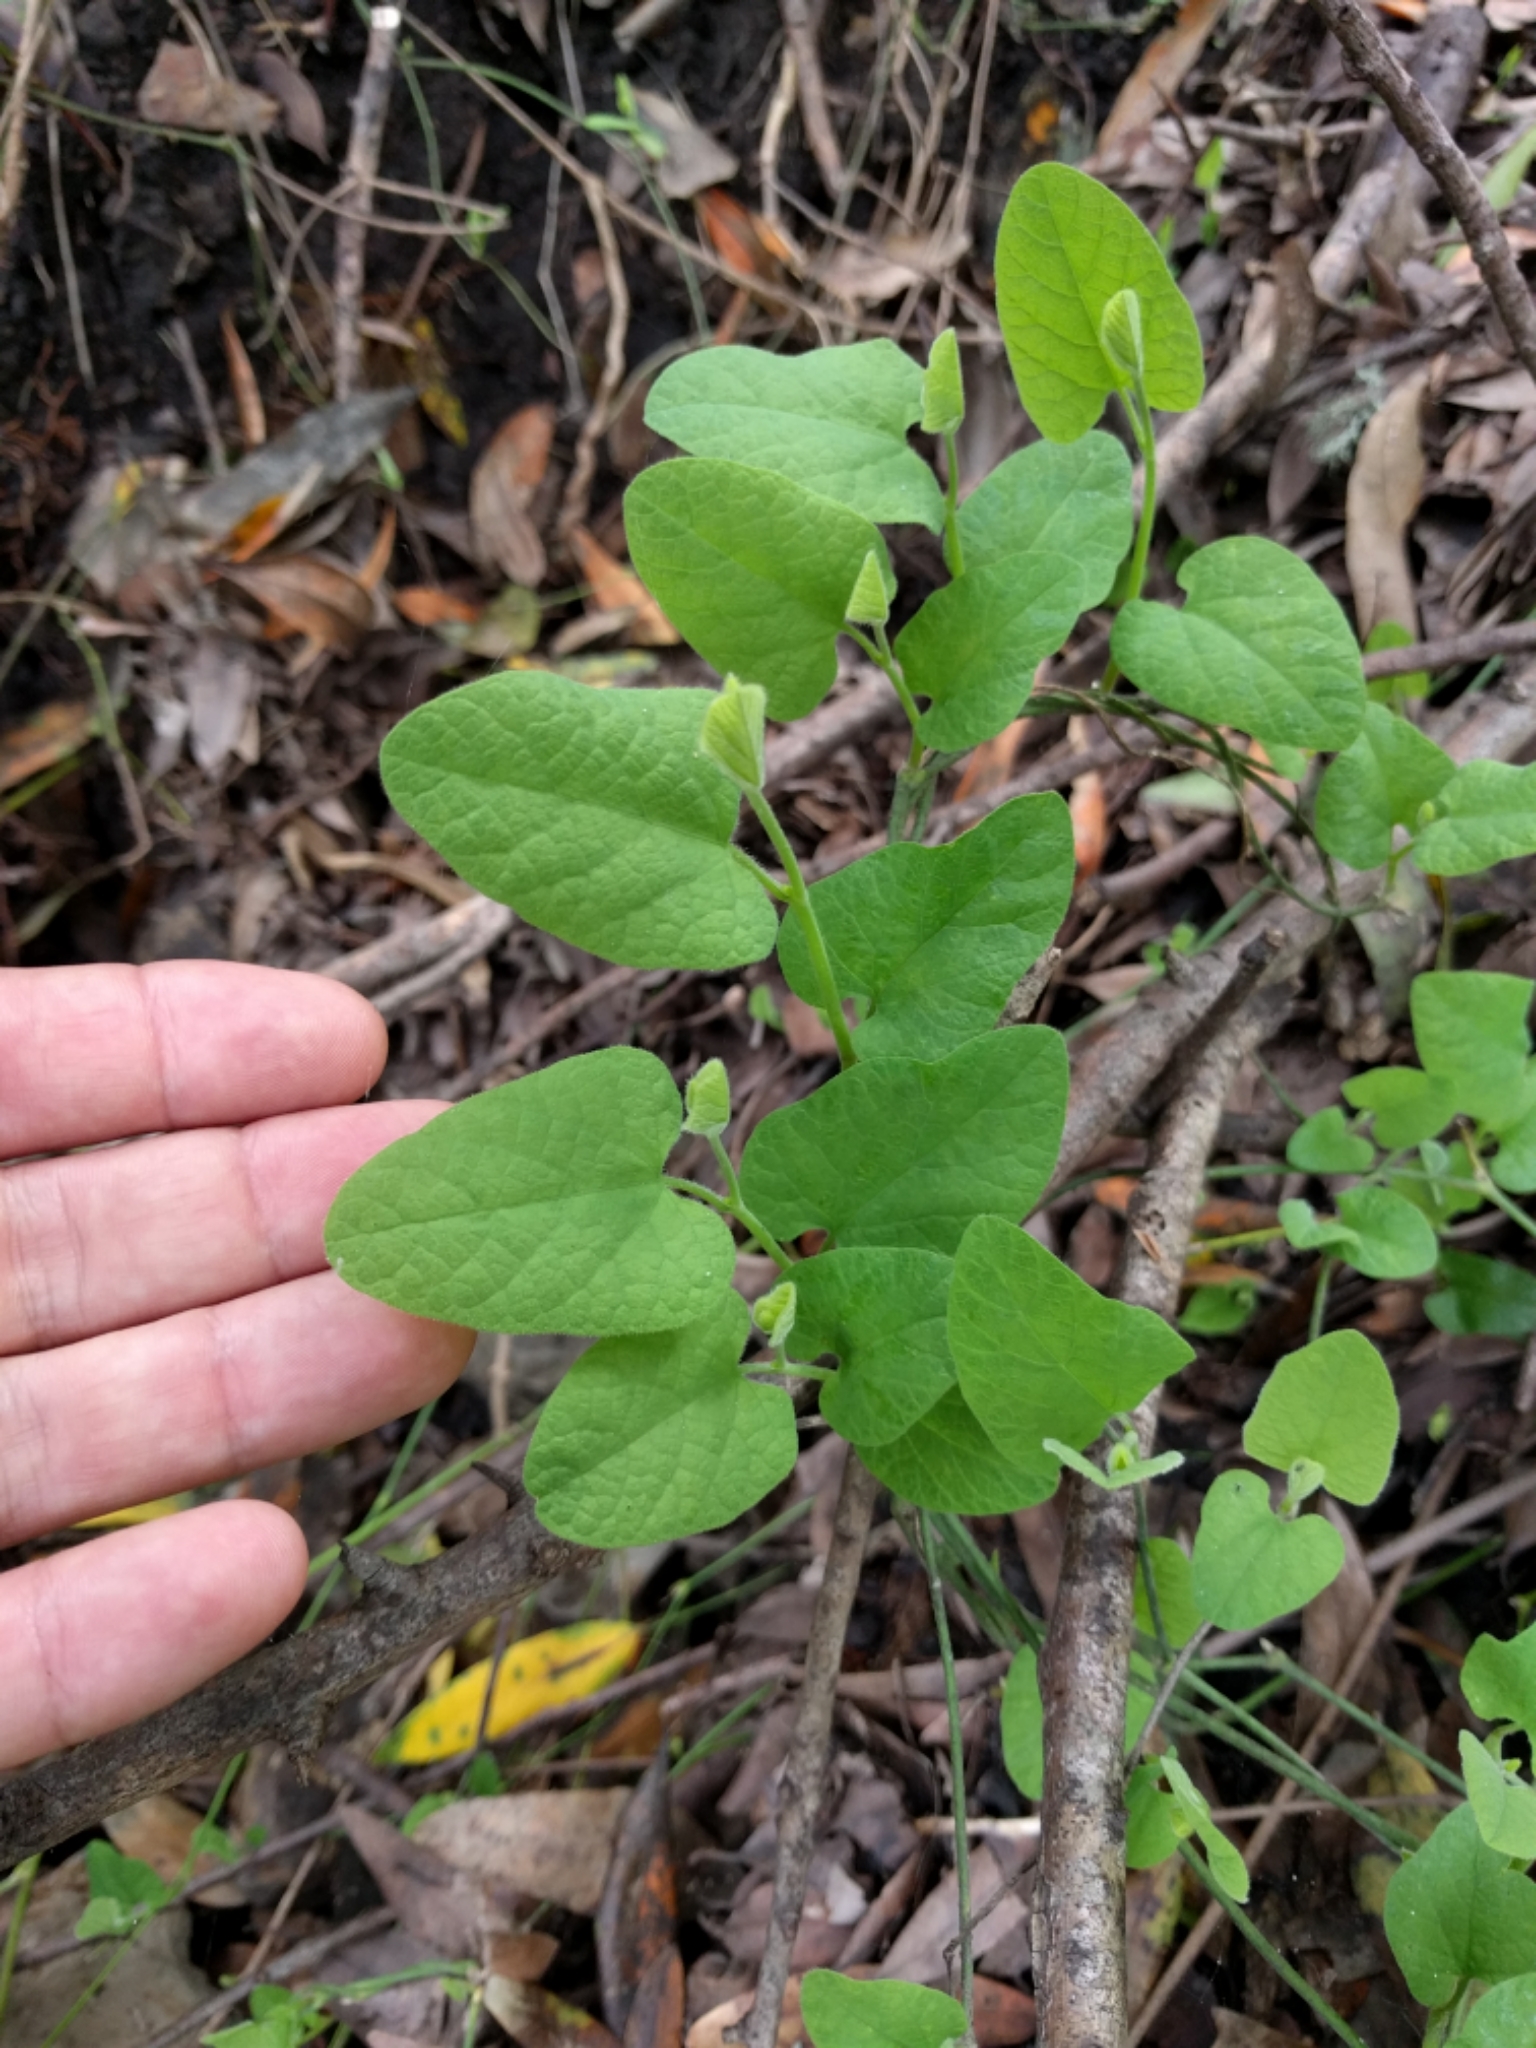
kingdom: Plantae
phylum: Tracheophyta
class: Magnoliopsida
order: Piperales
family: Aristolochiaceae
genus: Isotrema
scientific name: Isotrema californicum
